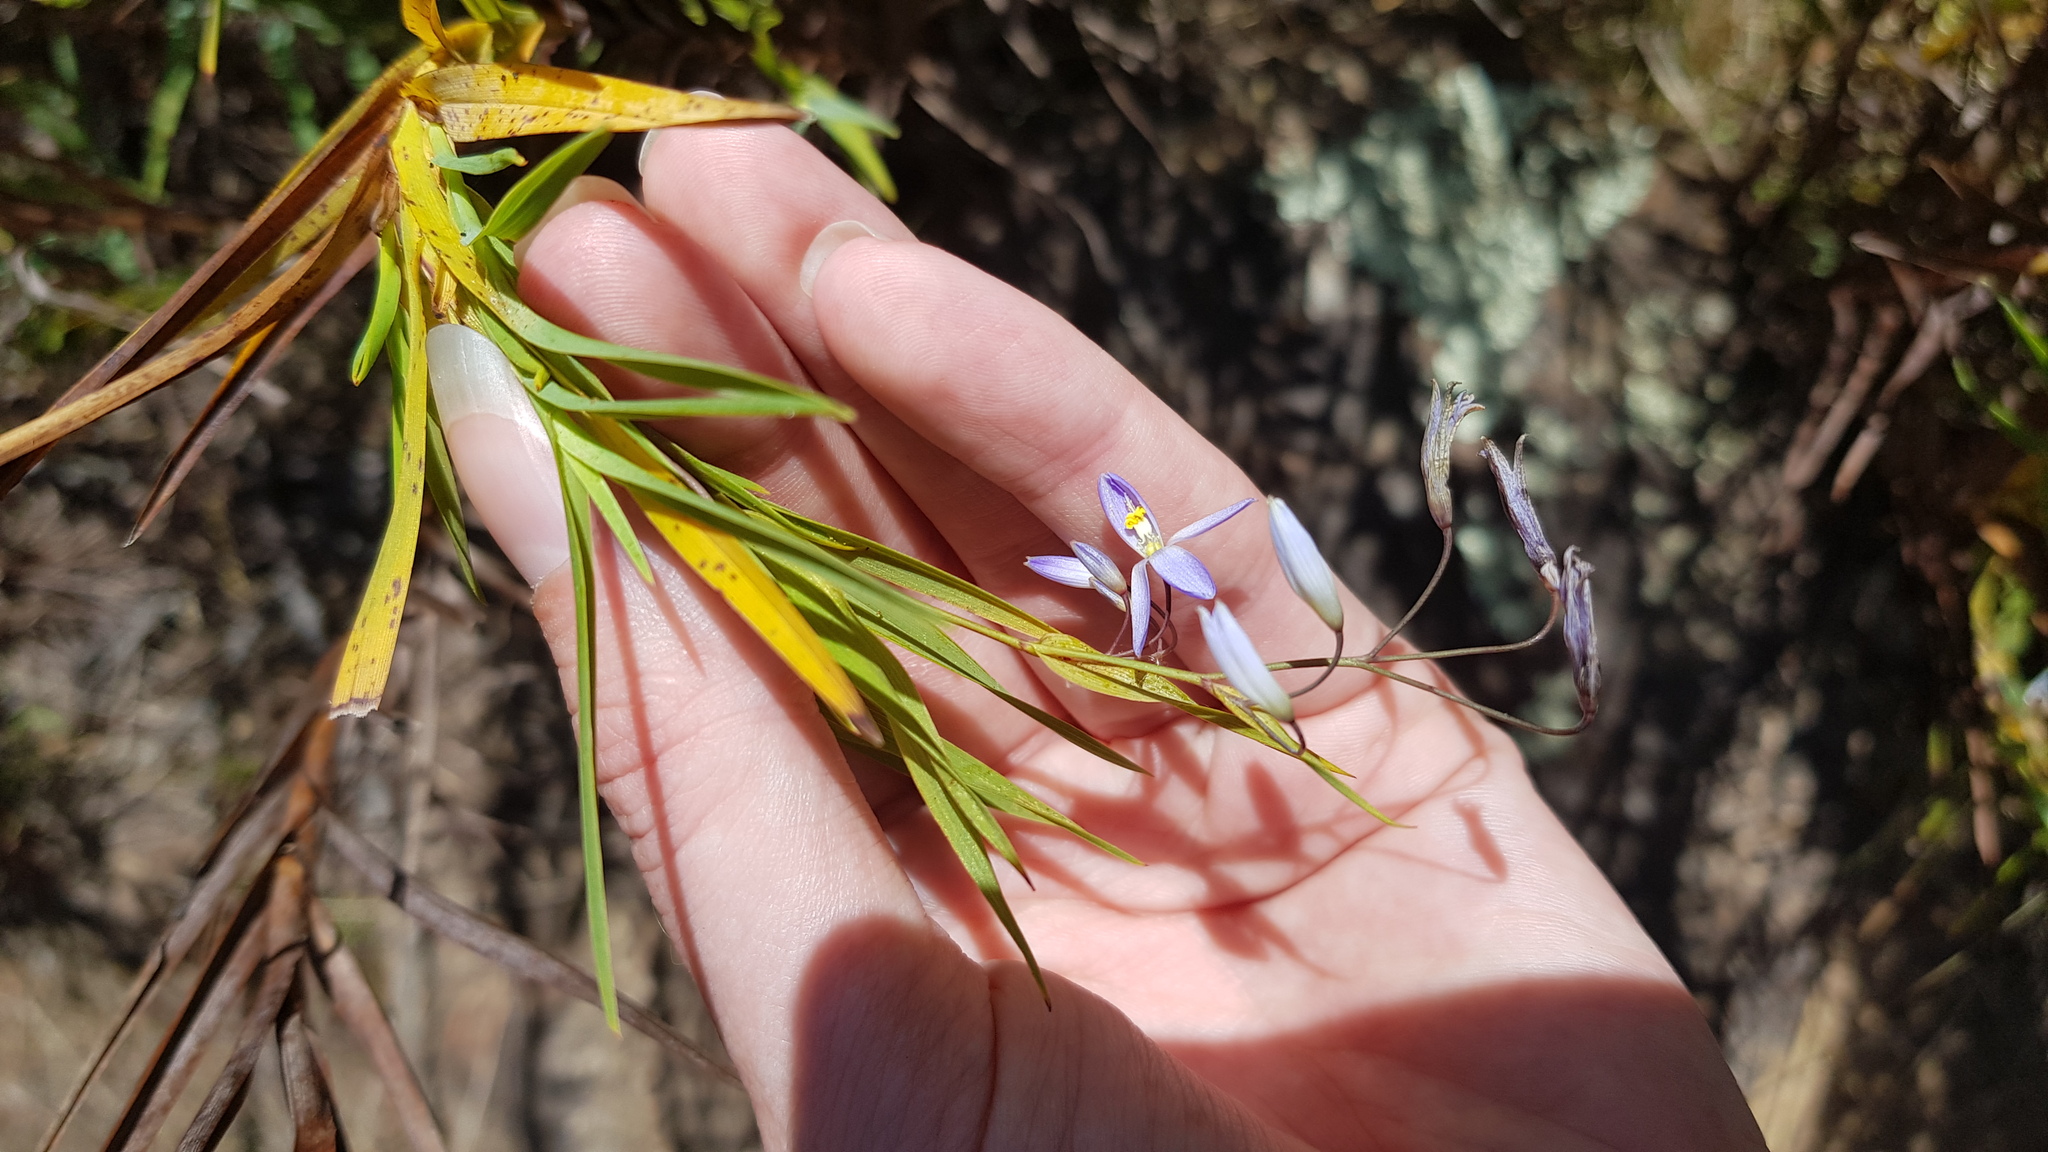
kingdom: Plantae
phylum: Tracheophyta
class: Liliopsida
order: Asparagales
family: Asphodelaceae
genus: Stypandra
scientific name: Stypandra glauca
